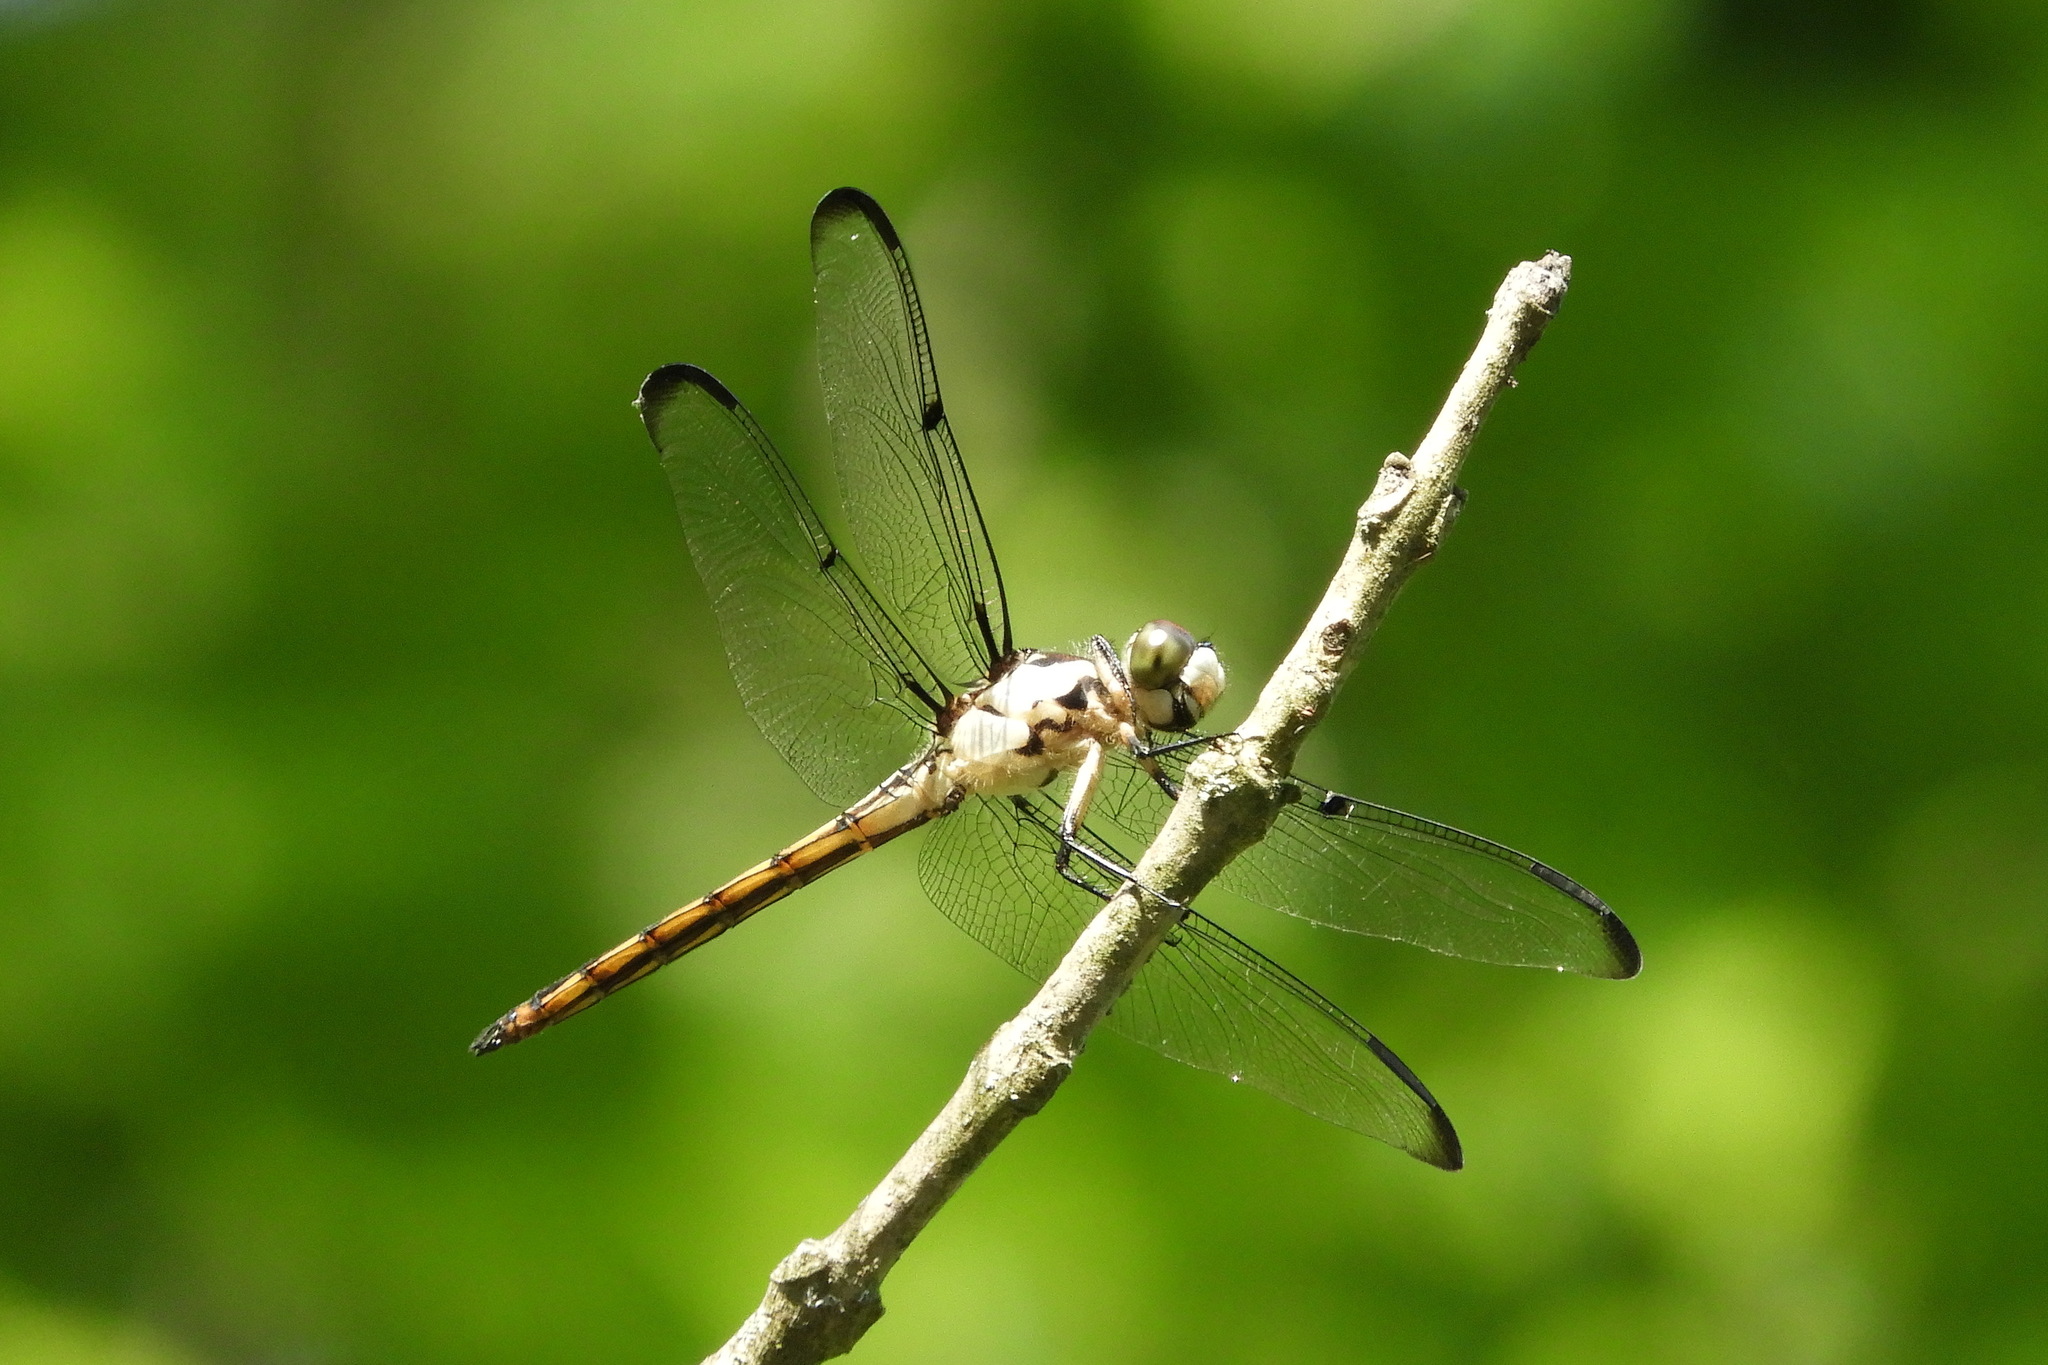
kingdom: Animalia
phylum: Arthropoda
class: Insecta
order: Odonata
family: Libellulidae
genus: Libellula
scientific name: Libellula vibrans
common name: Great blue skimmer
